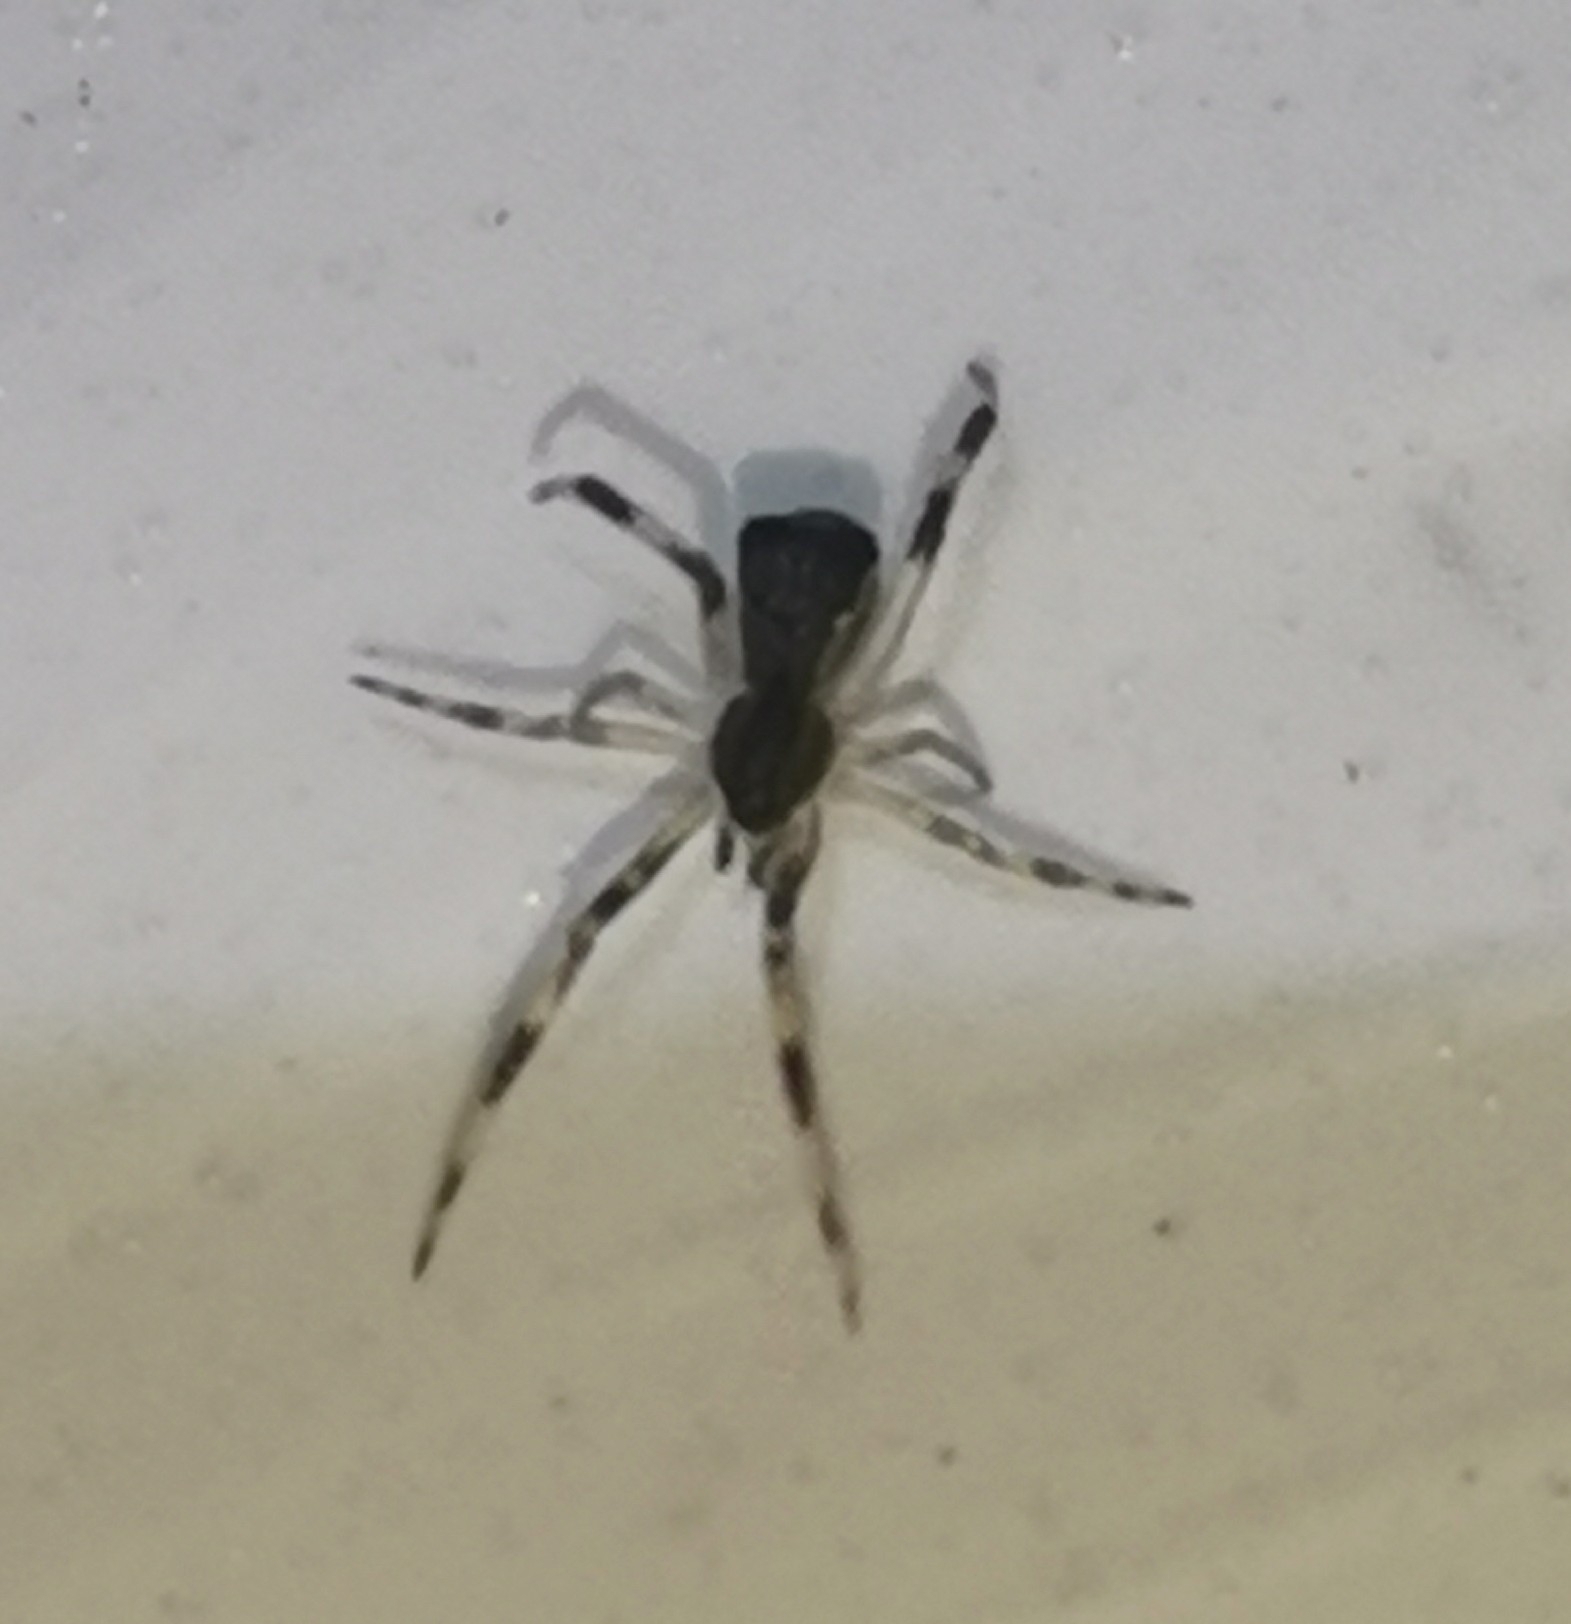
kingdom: Animalia
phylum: Arthropoda
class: Arachnida
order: Araneae
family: Theridiidae
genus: Episinus
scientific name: Episinus angulatus
